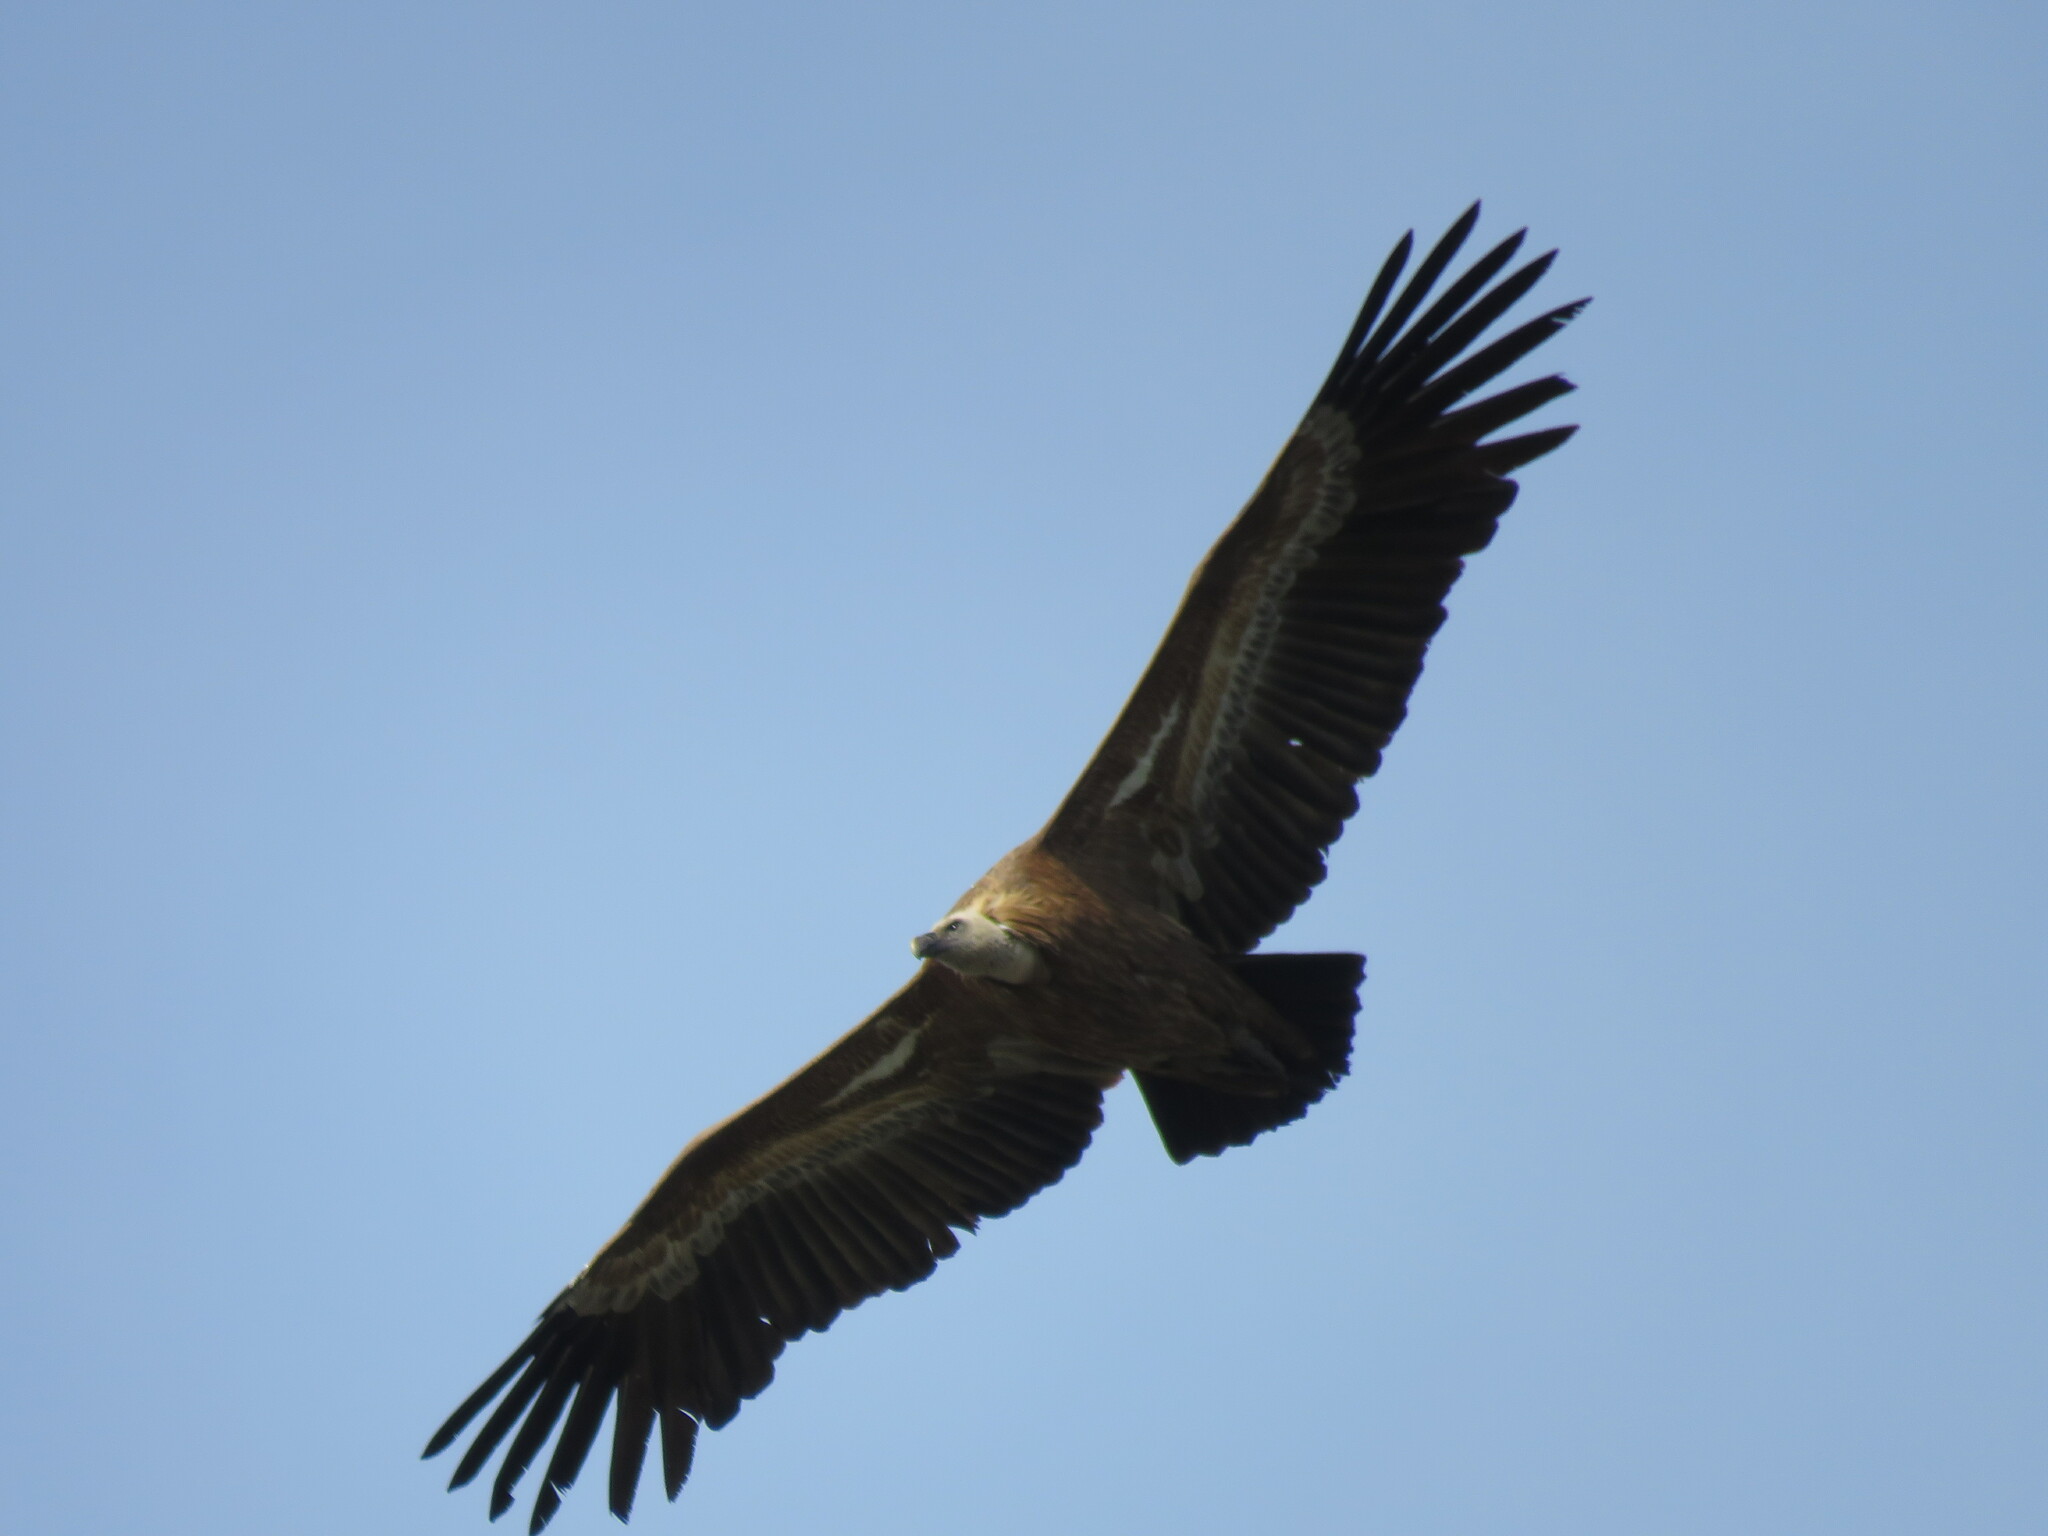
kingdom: Animalia
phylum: Chordata
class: Aves
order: Accipitriformes
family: Accipitridae
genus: Gyps
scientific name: Gyps fulvus
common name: Griffon vulture
